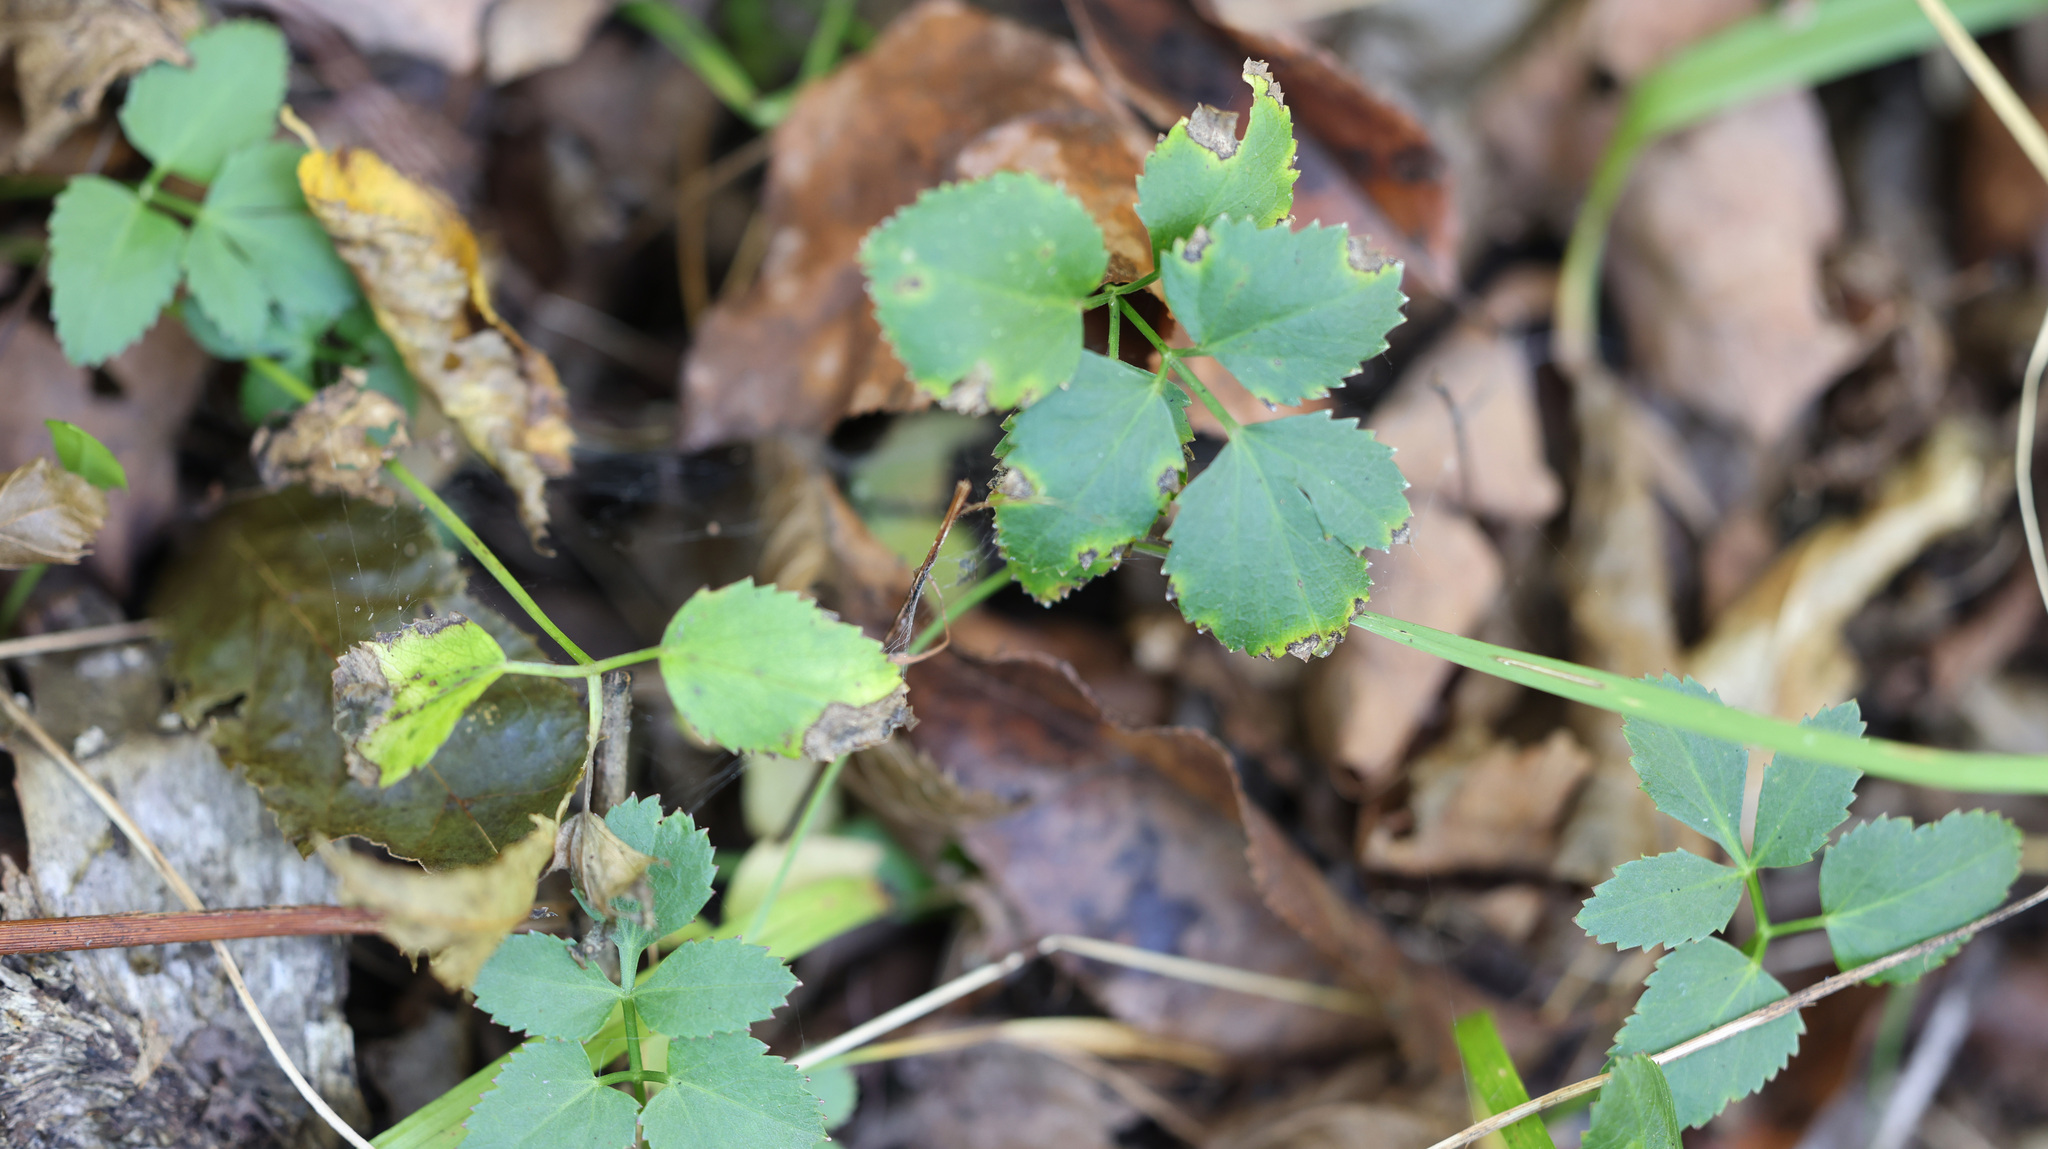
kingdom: Plantae
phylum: Tracheophyta
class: Magnoliopsida
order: Apiales
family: Apiaceae
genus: Zizia
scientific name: Zizia aurea
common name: Golden alexanders
